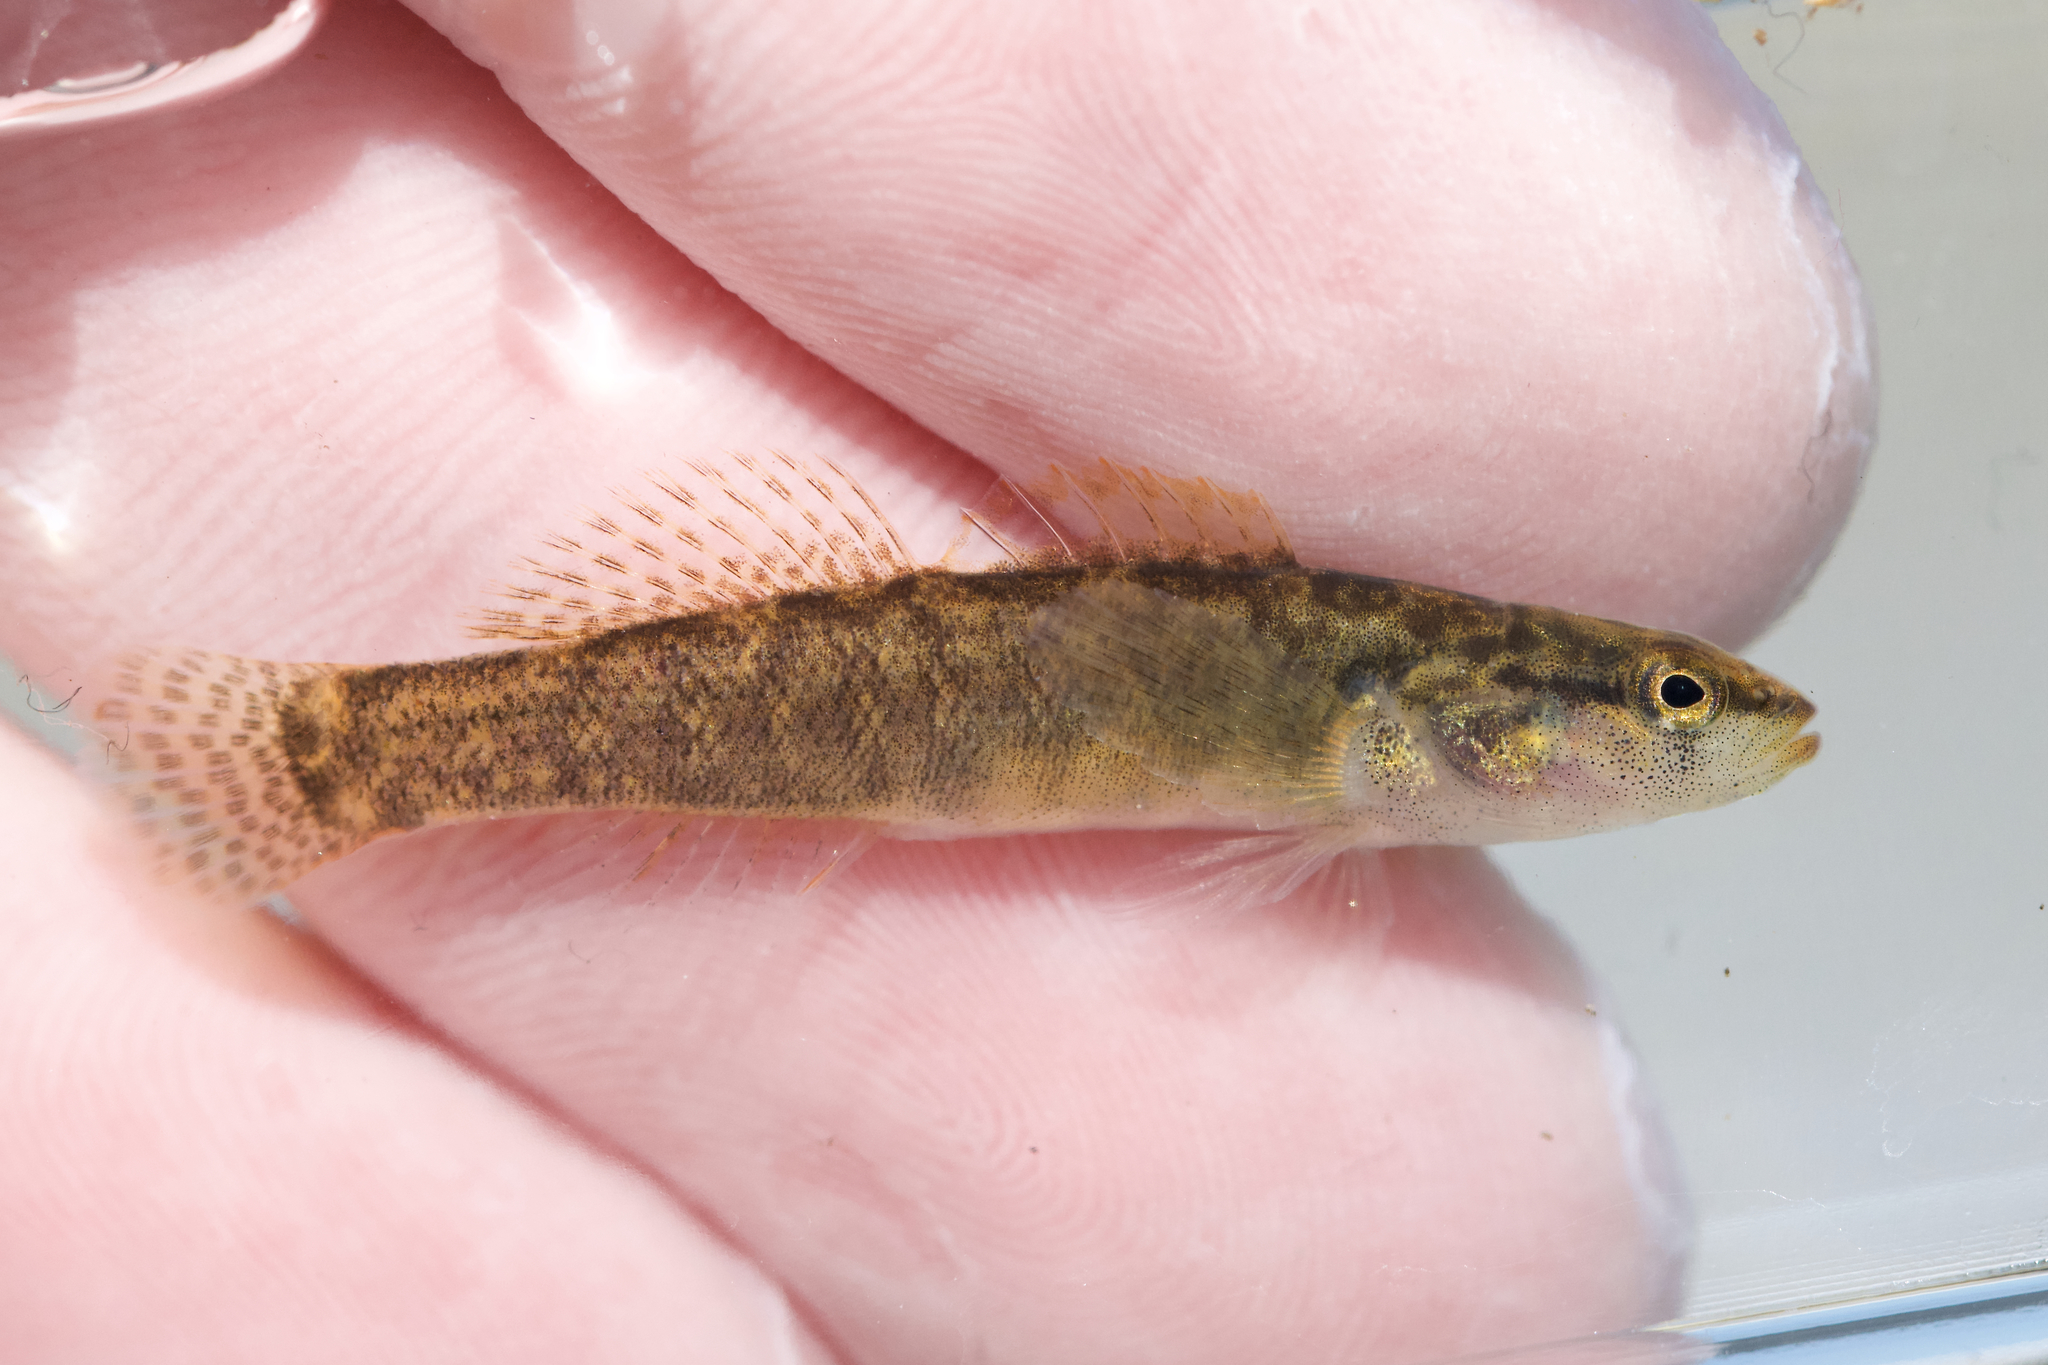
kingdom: Animalia
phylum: Chordata
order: Perciformes
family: Percidae
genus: Etheostoma
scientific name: Etheostoma flabellare
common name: Fantail darter
